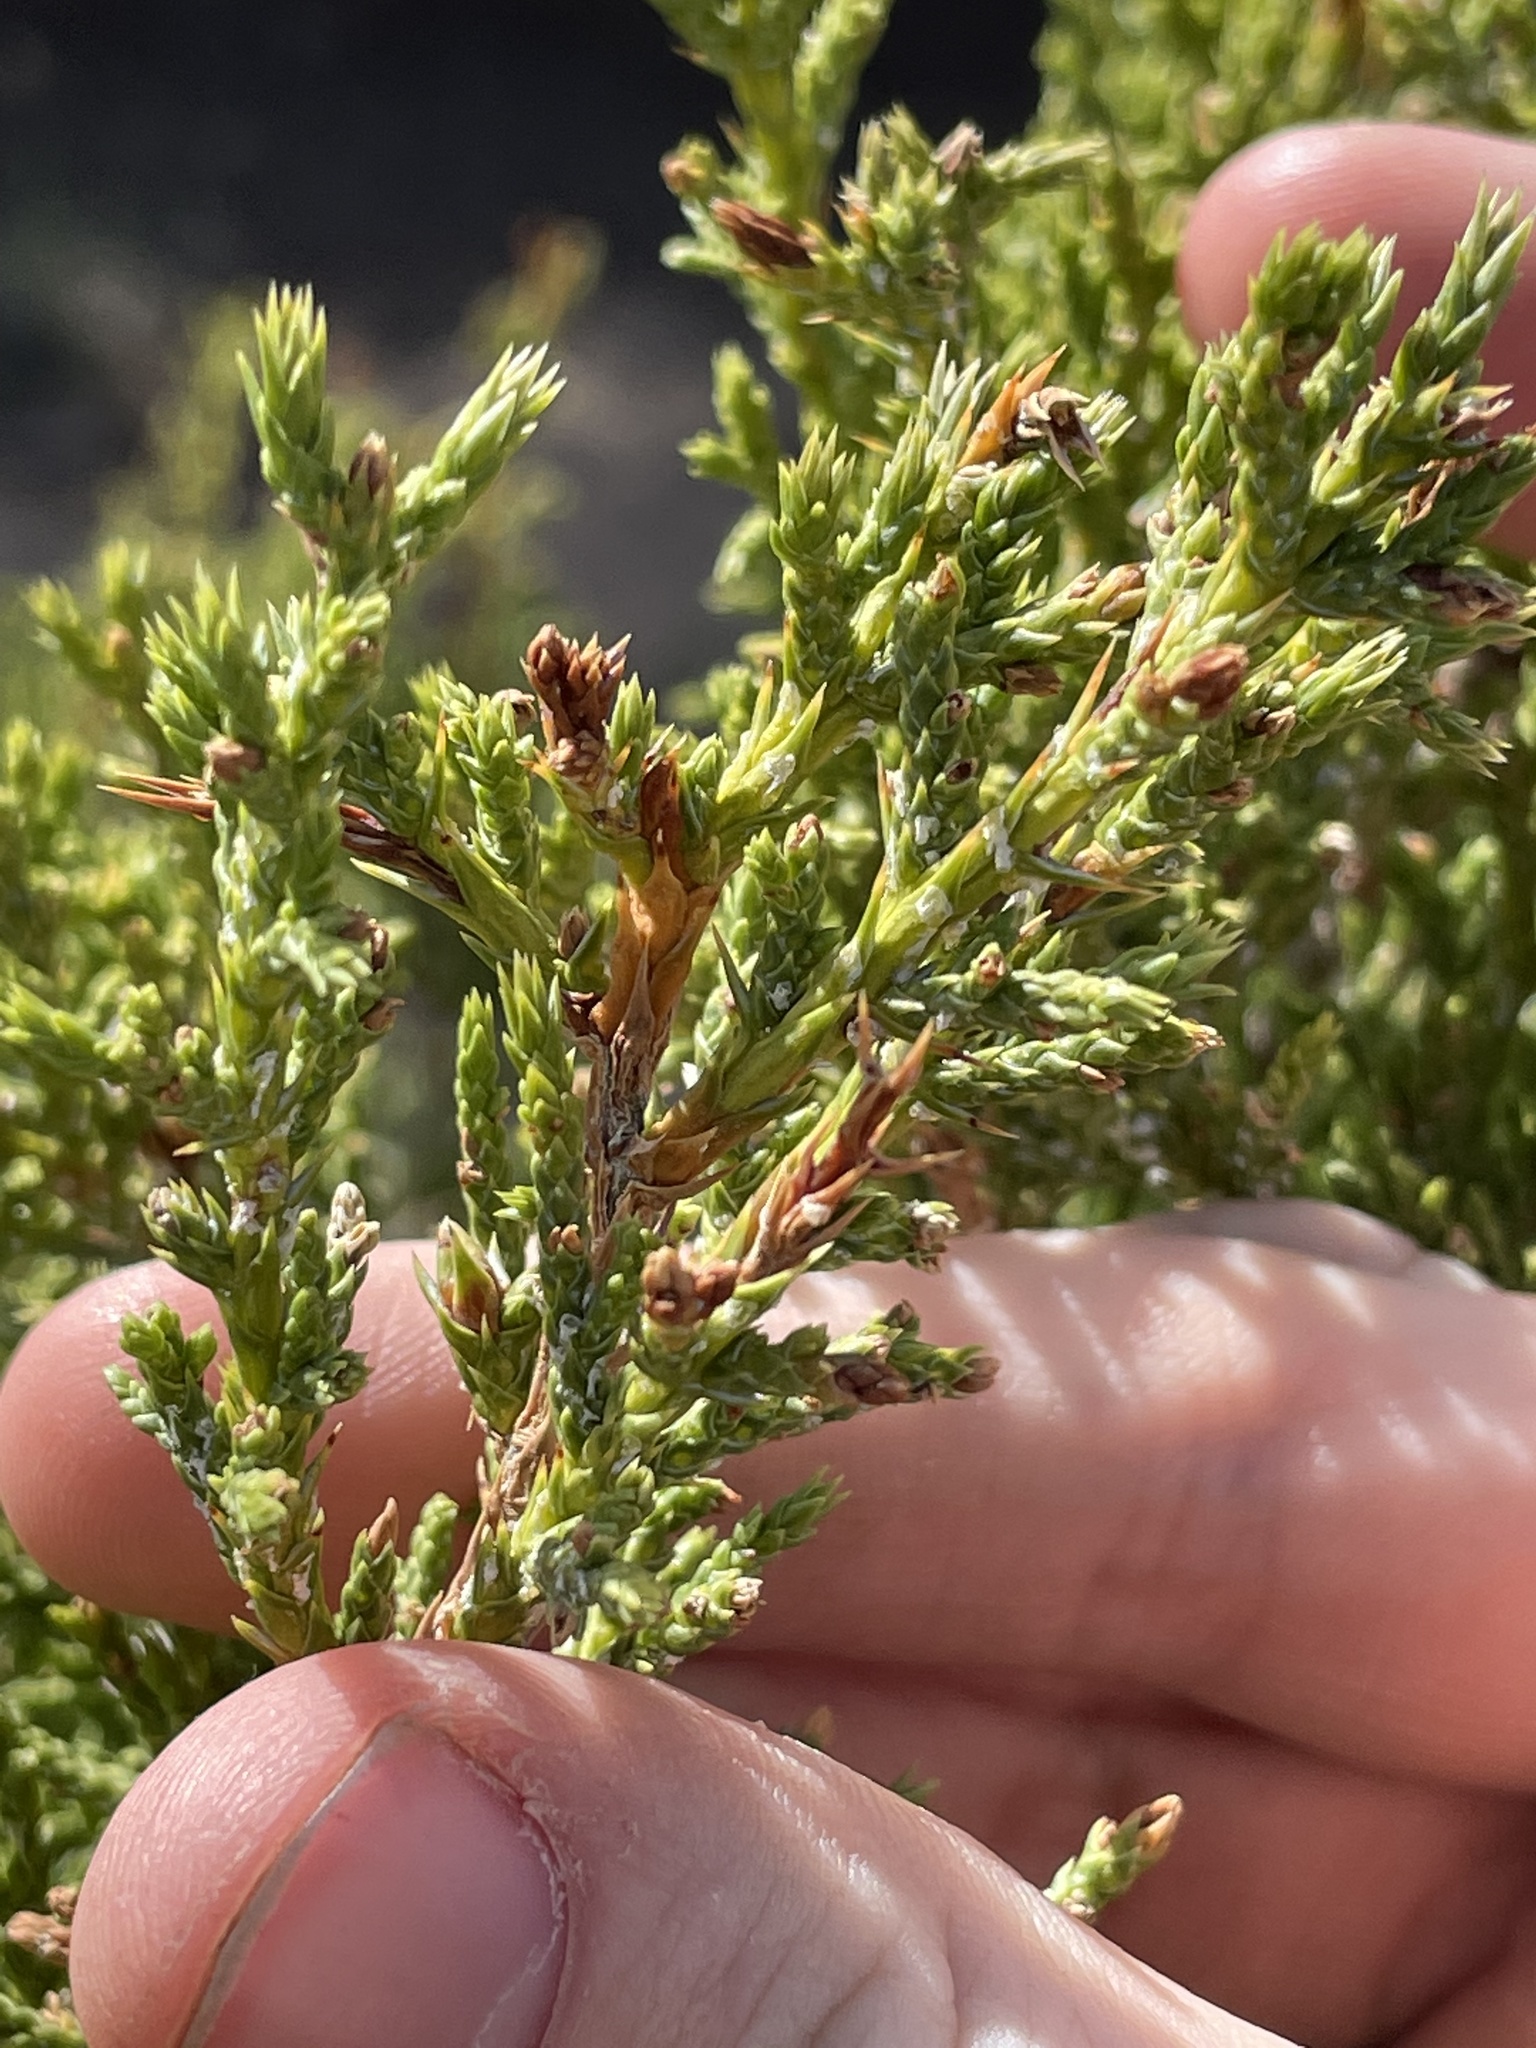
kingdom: Plantae
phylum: Tracheophyta
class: Pinopsida
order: Pinales
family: Cupressaceae
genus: Juniperus
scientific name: Juniperus monosperma
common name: One-seed juniper
